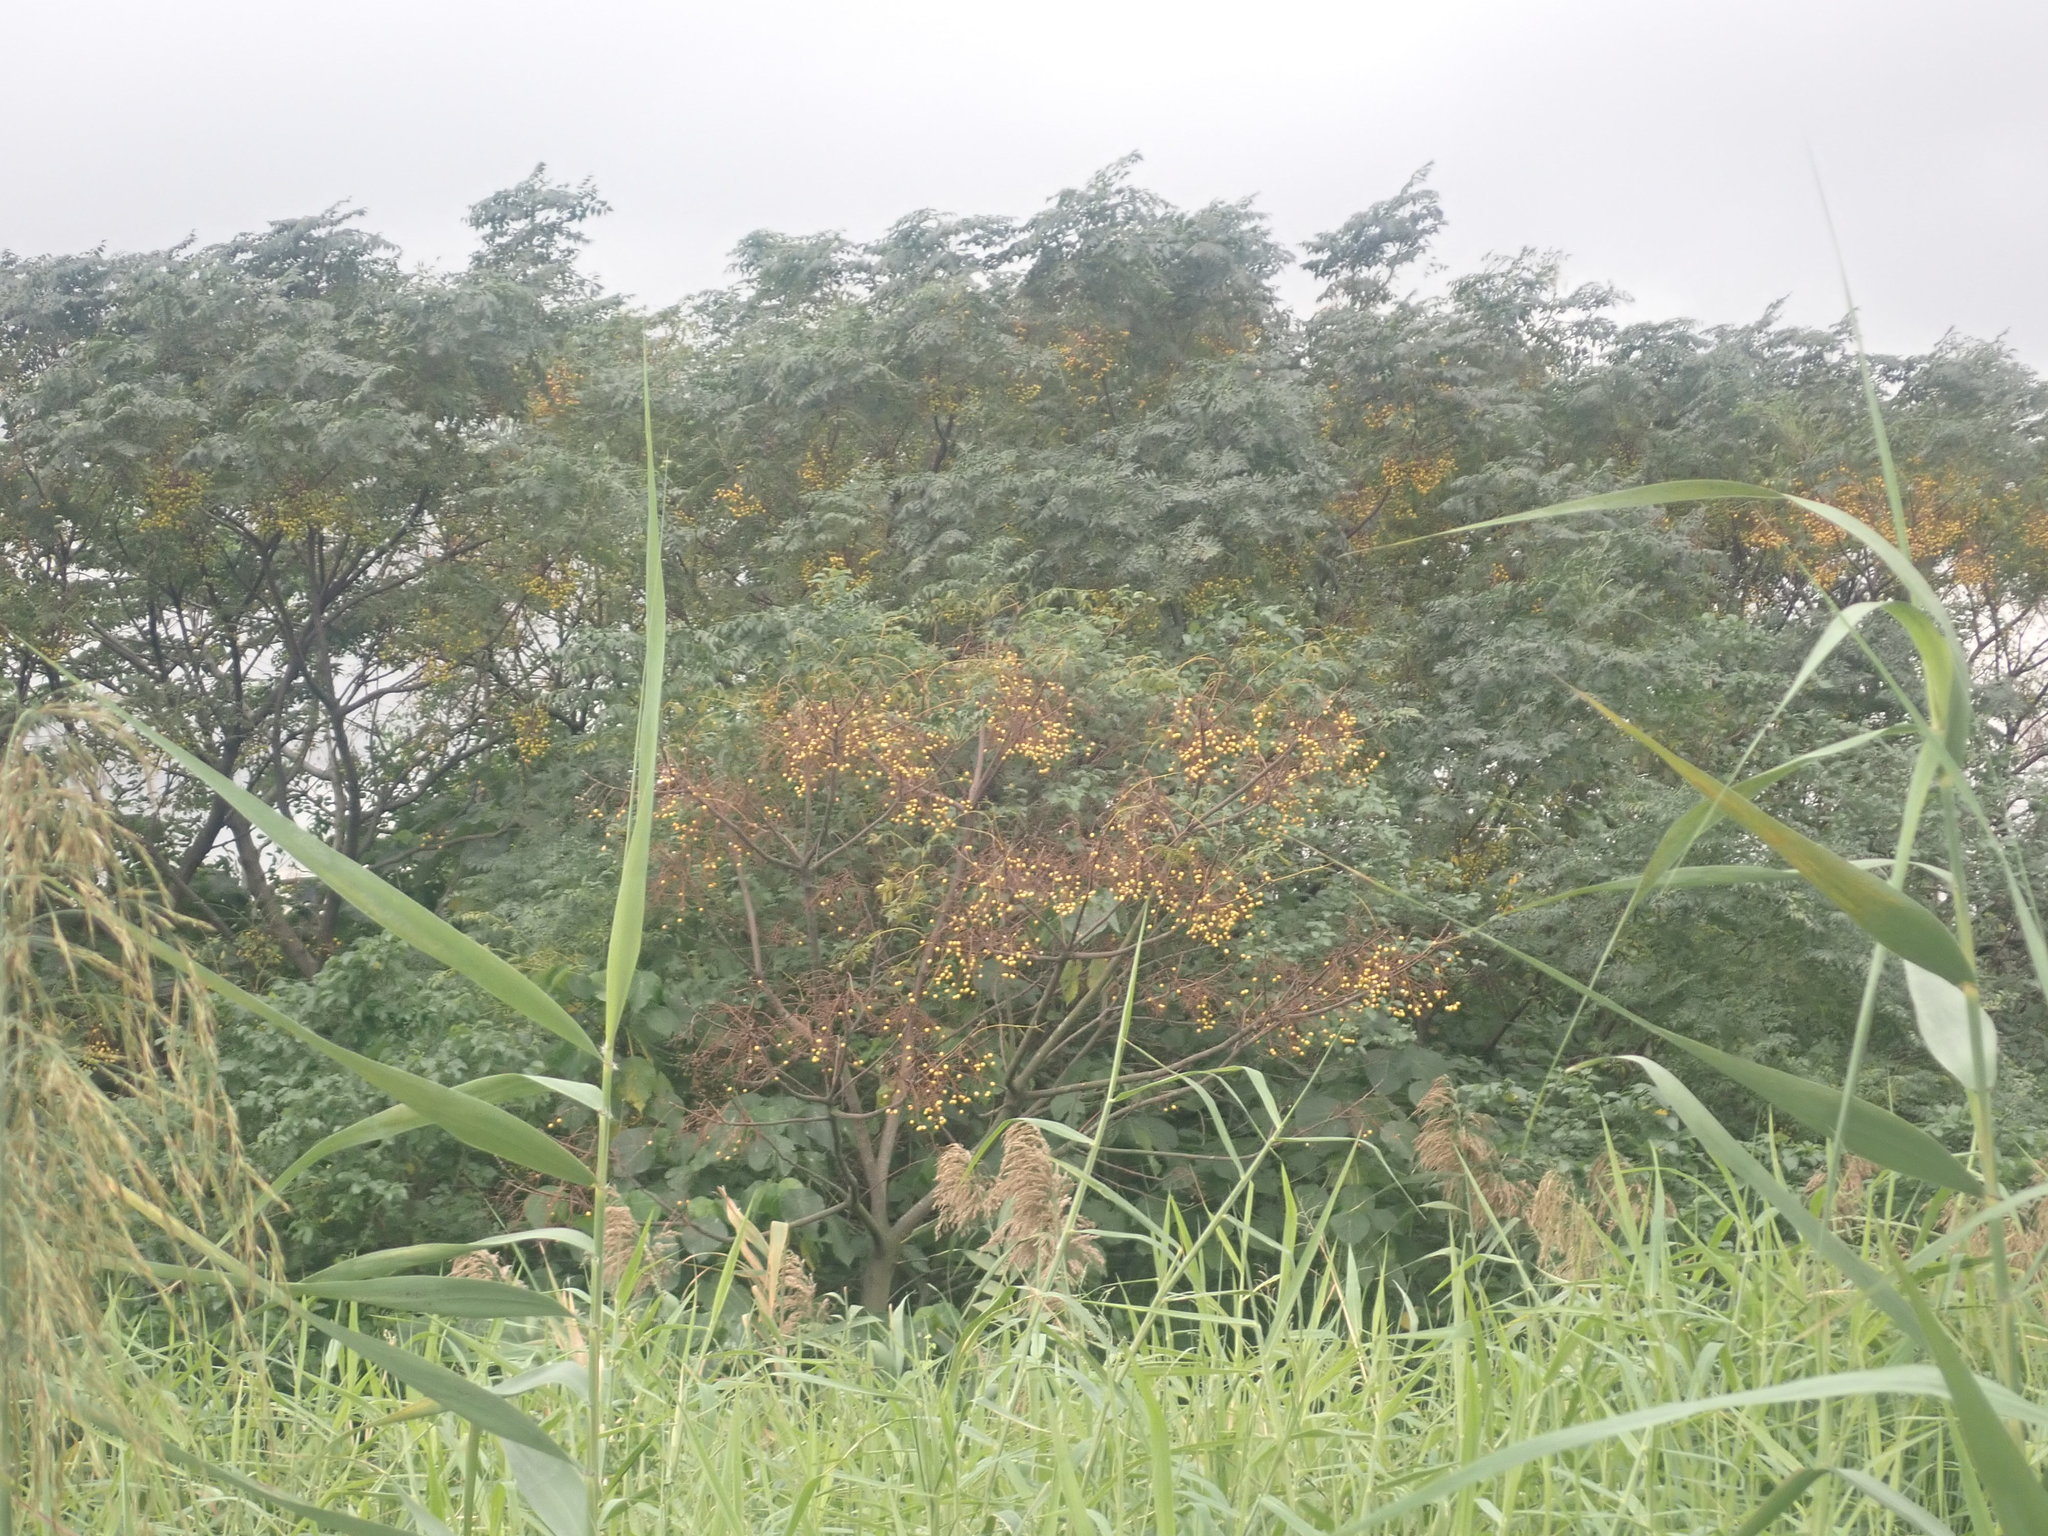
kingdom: Plantae
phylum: Tracheophyta
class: Magnoliopsida
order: Sapindales
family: Meliaceae
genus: Melia
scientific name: Melia azedarach
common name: Chinaberrytree
